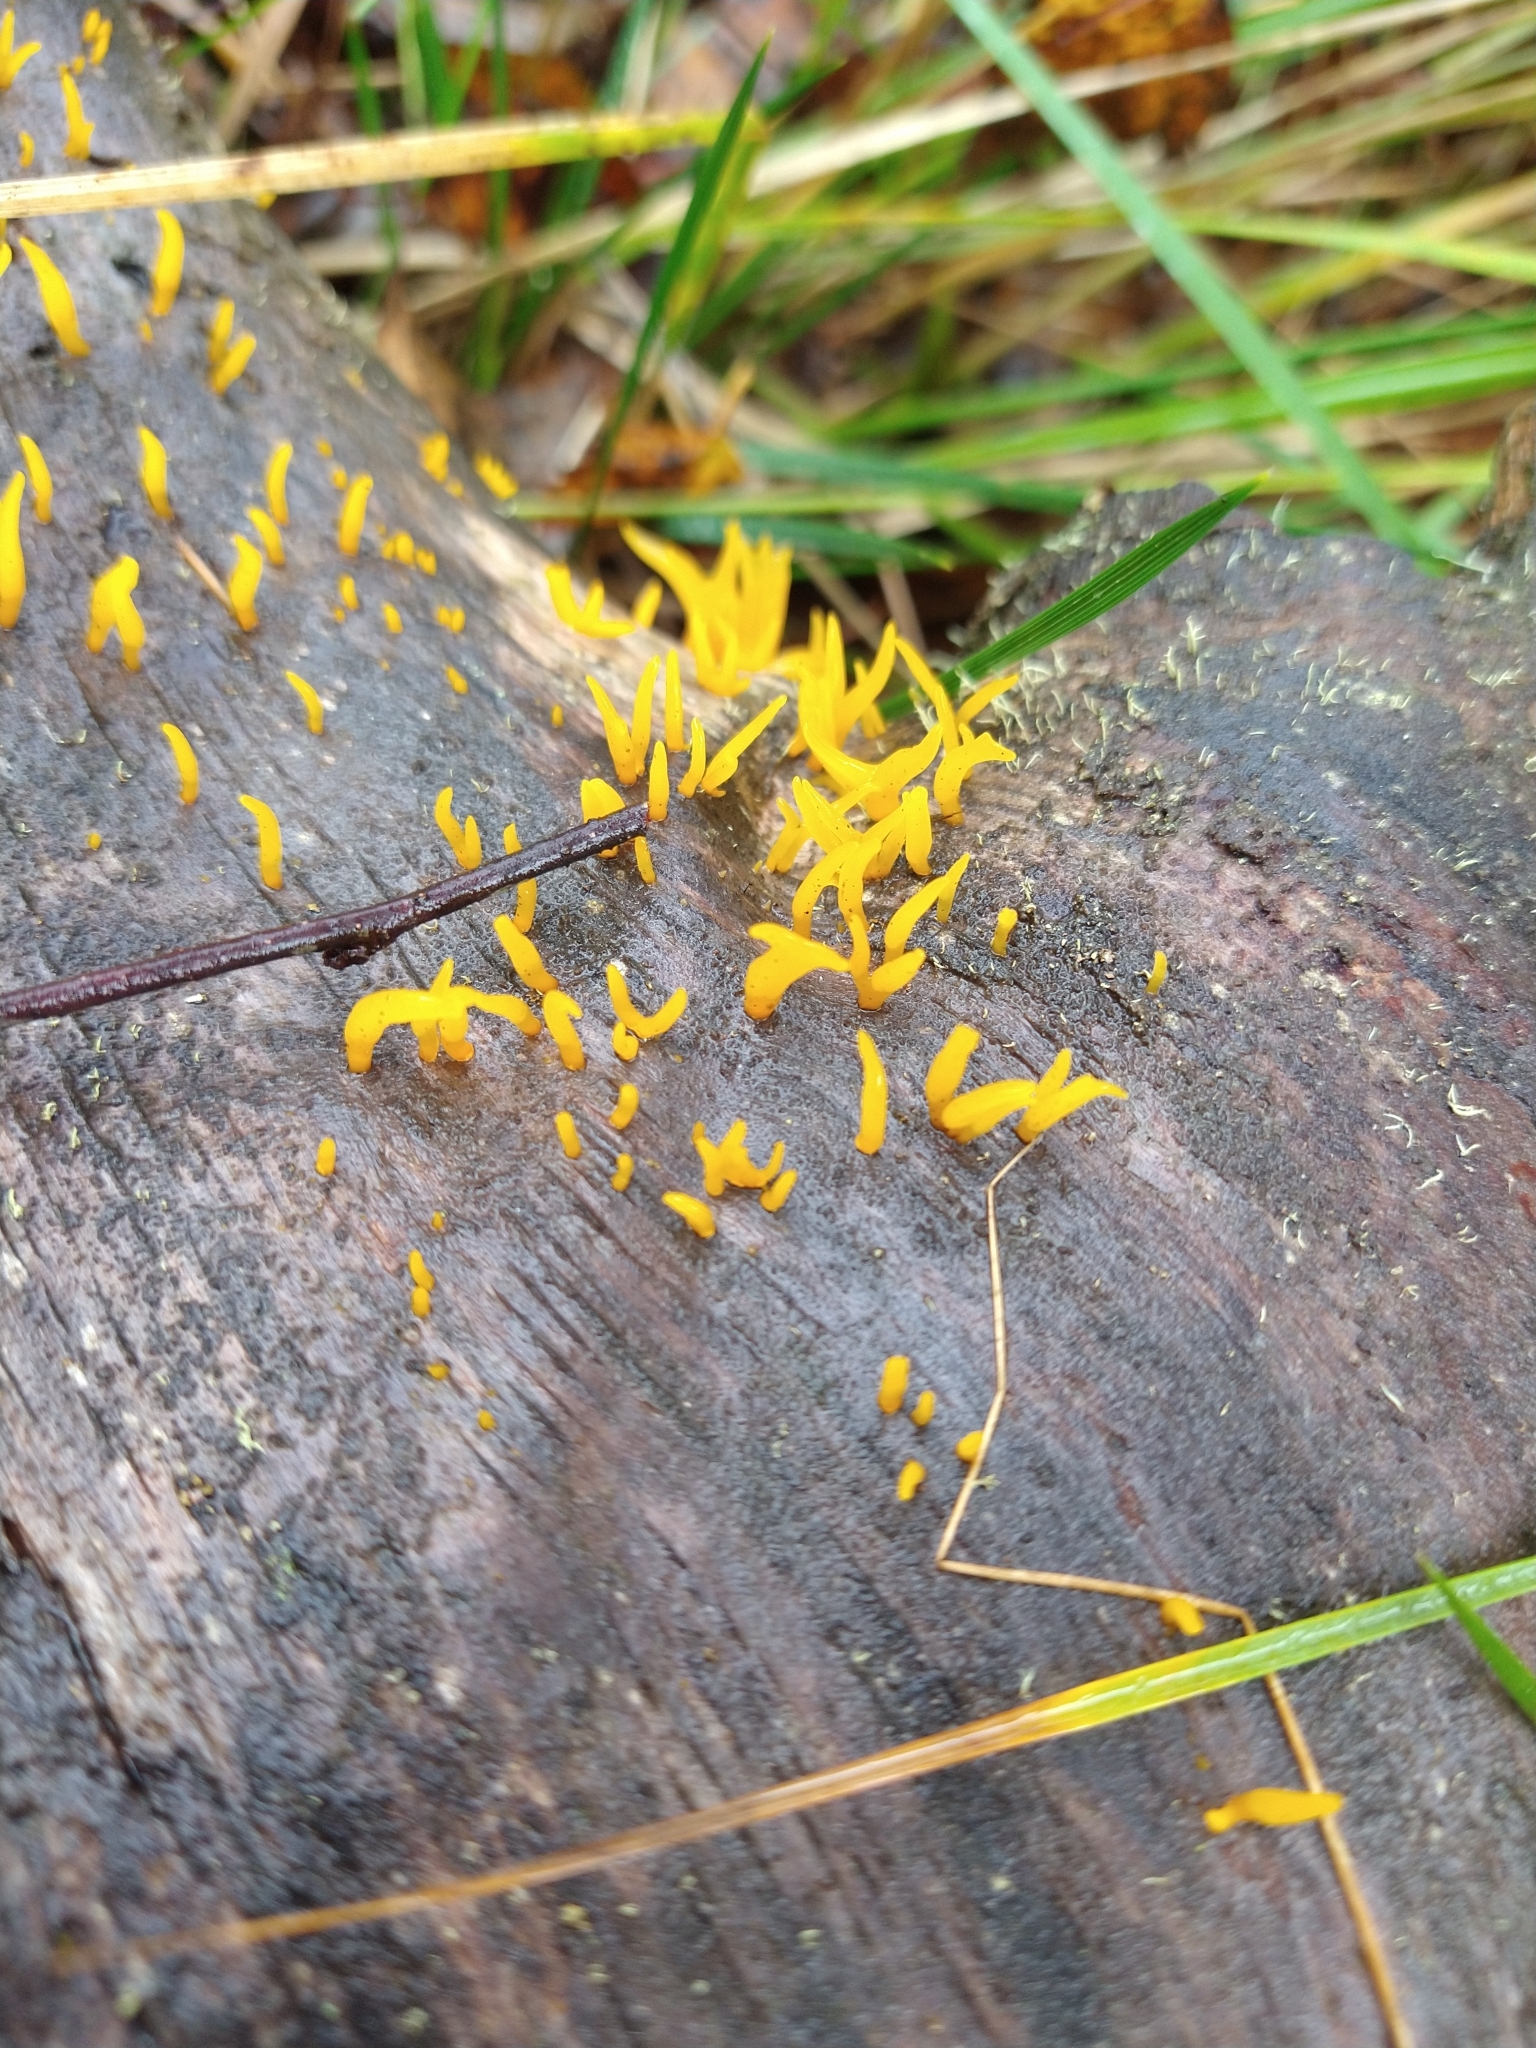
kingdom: Fungi
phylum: Basidiomycota
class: Dacrymycetes
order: Dacrymycetales
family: Dacrymycetaceae
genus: Calocera
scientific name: Calocera cornea
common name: Small stagshorn
